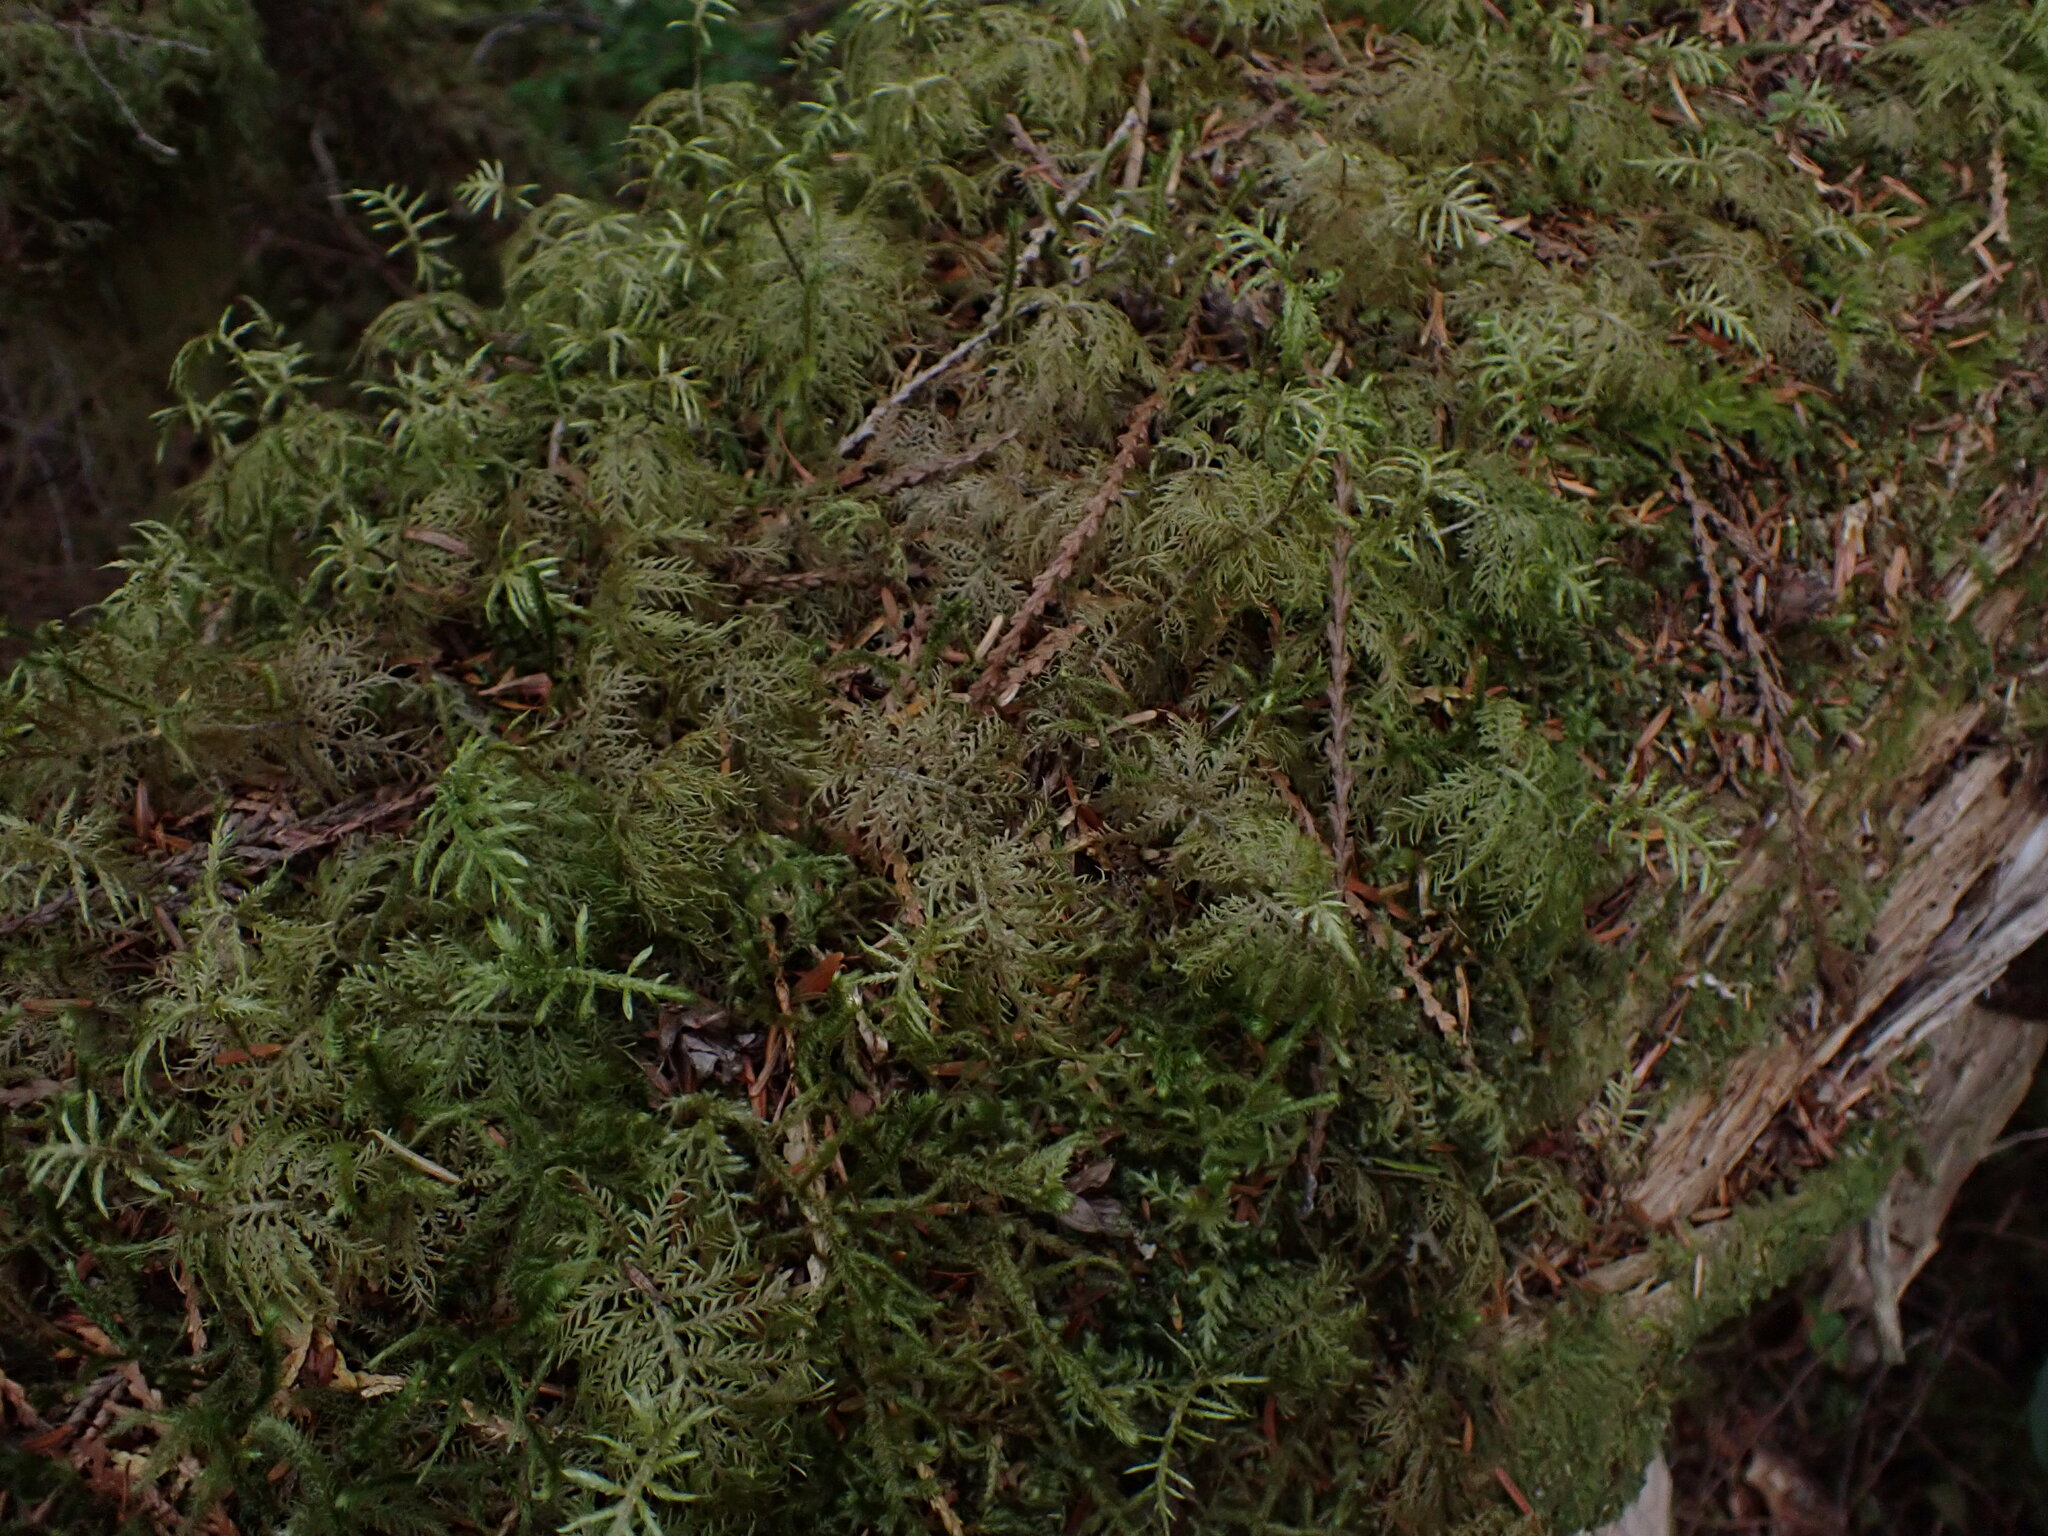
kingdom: Plantae
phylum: Bryophyta
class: Bryopsida
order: Hypnales
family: Hylocomiaceae
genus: Hylocomium
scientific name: Hylocomium splendens
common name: Stairstep moss
